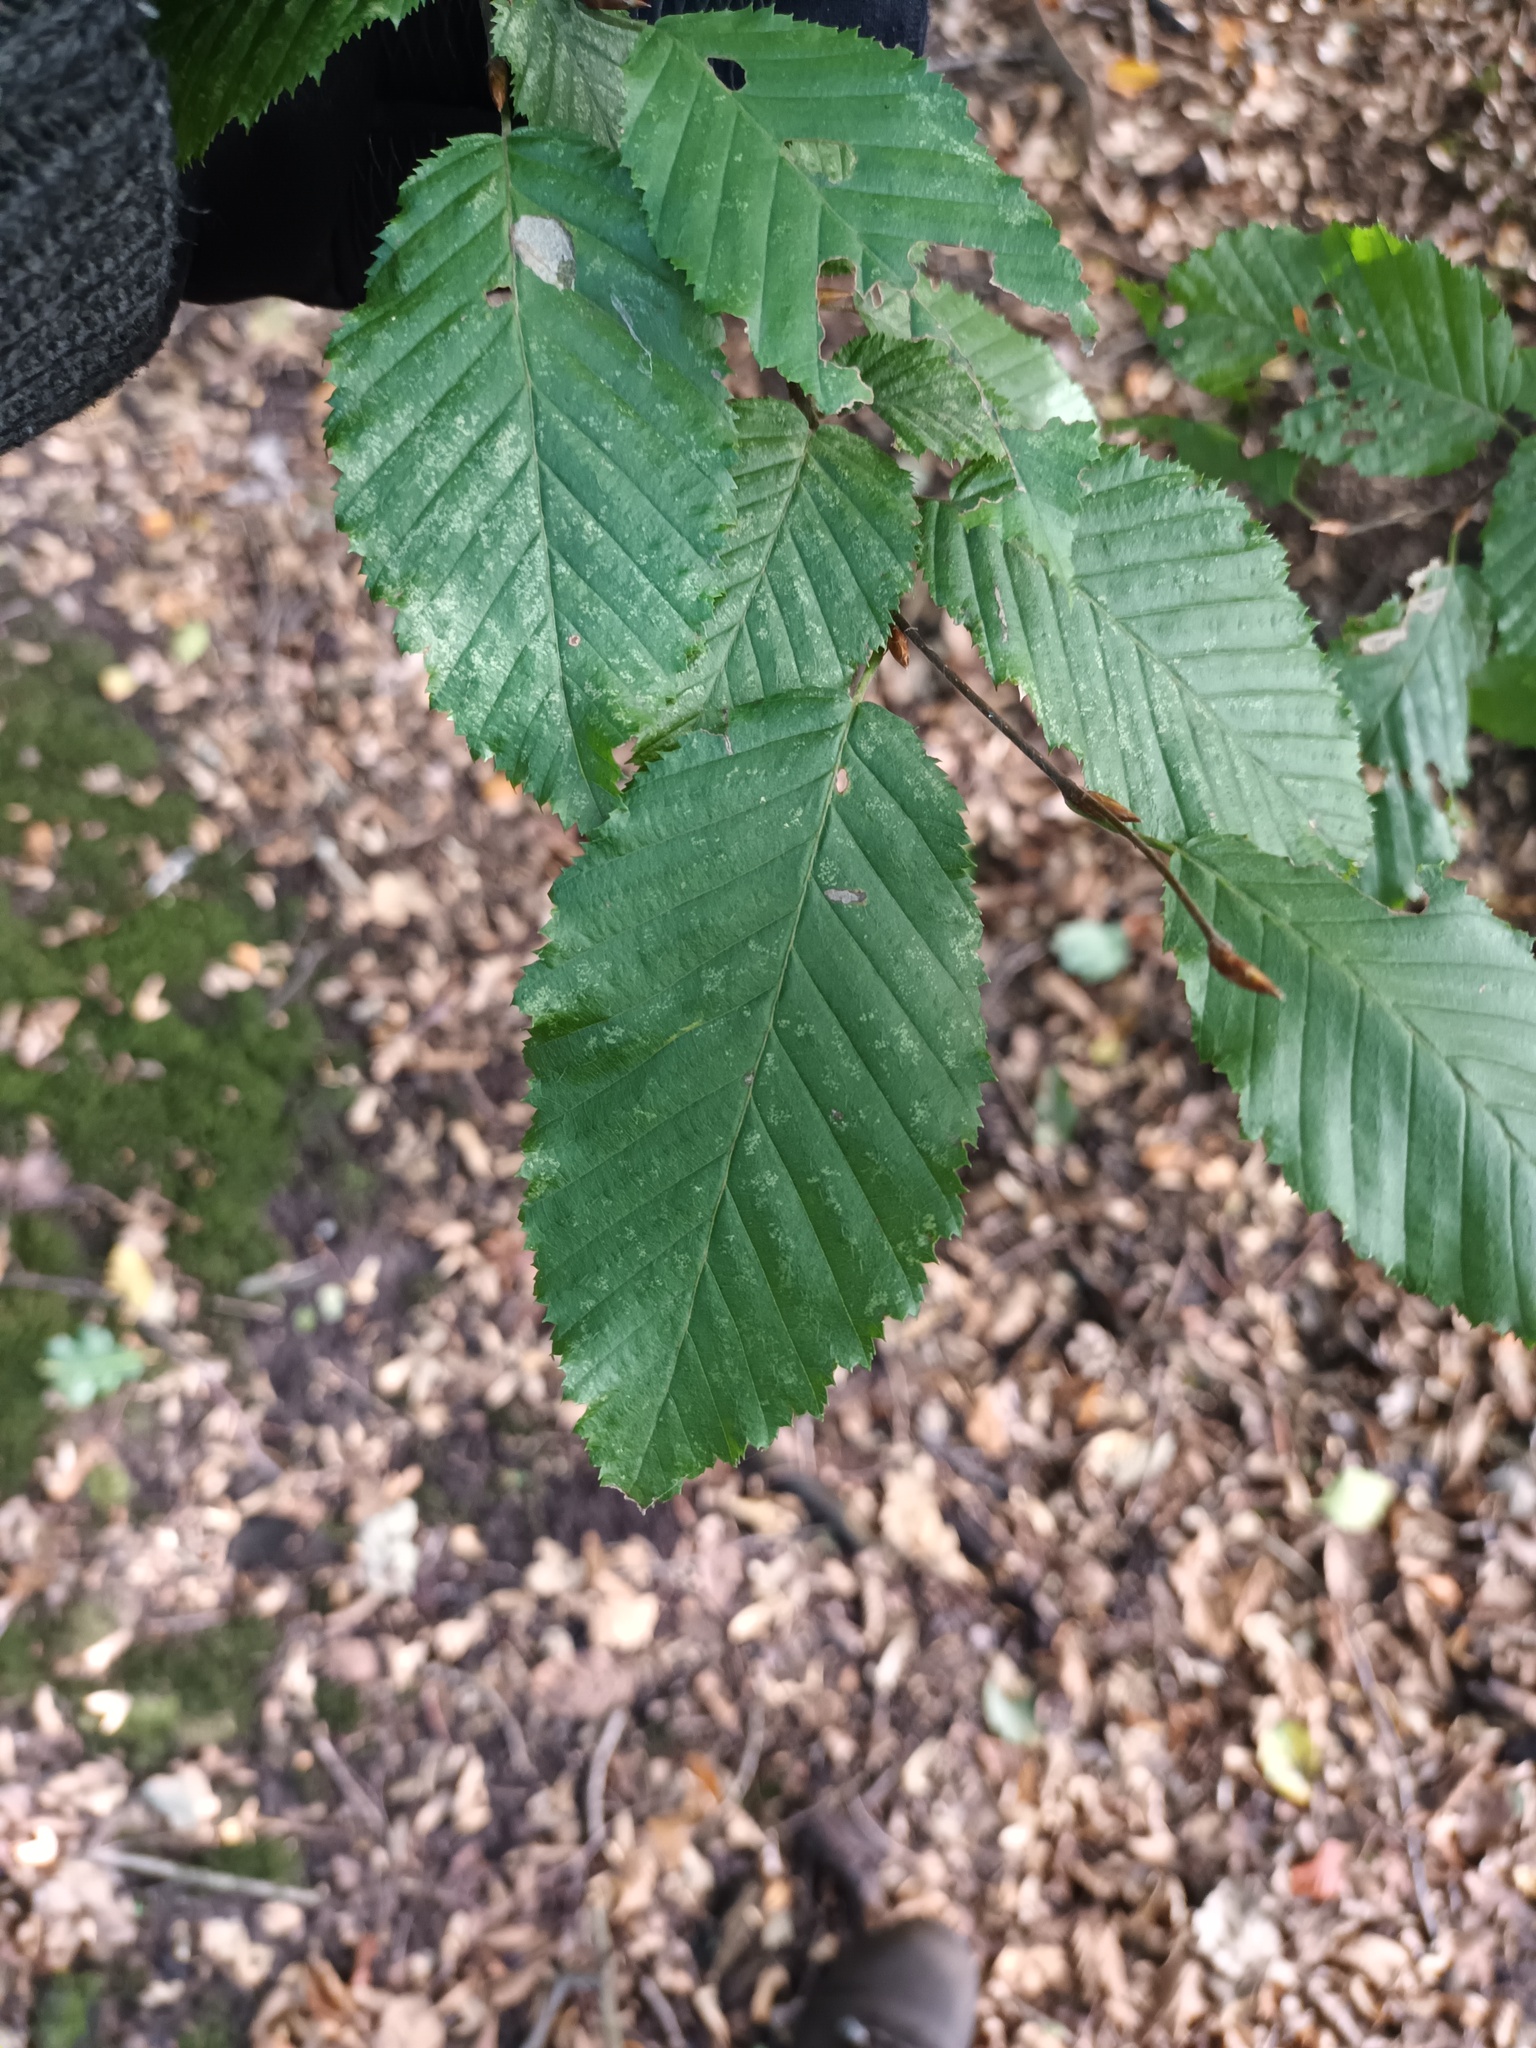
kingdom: Plantae
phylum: Tracheophyta
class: Magnoliopsida
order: Fagales
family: Betulaceae
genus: Carpinus
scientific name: Carpinus betulus
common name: Hornbeam
